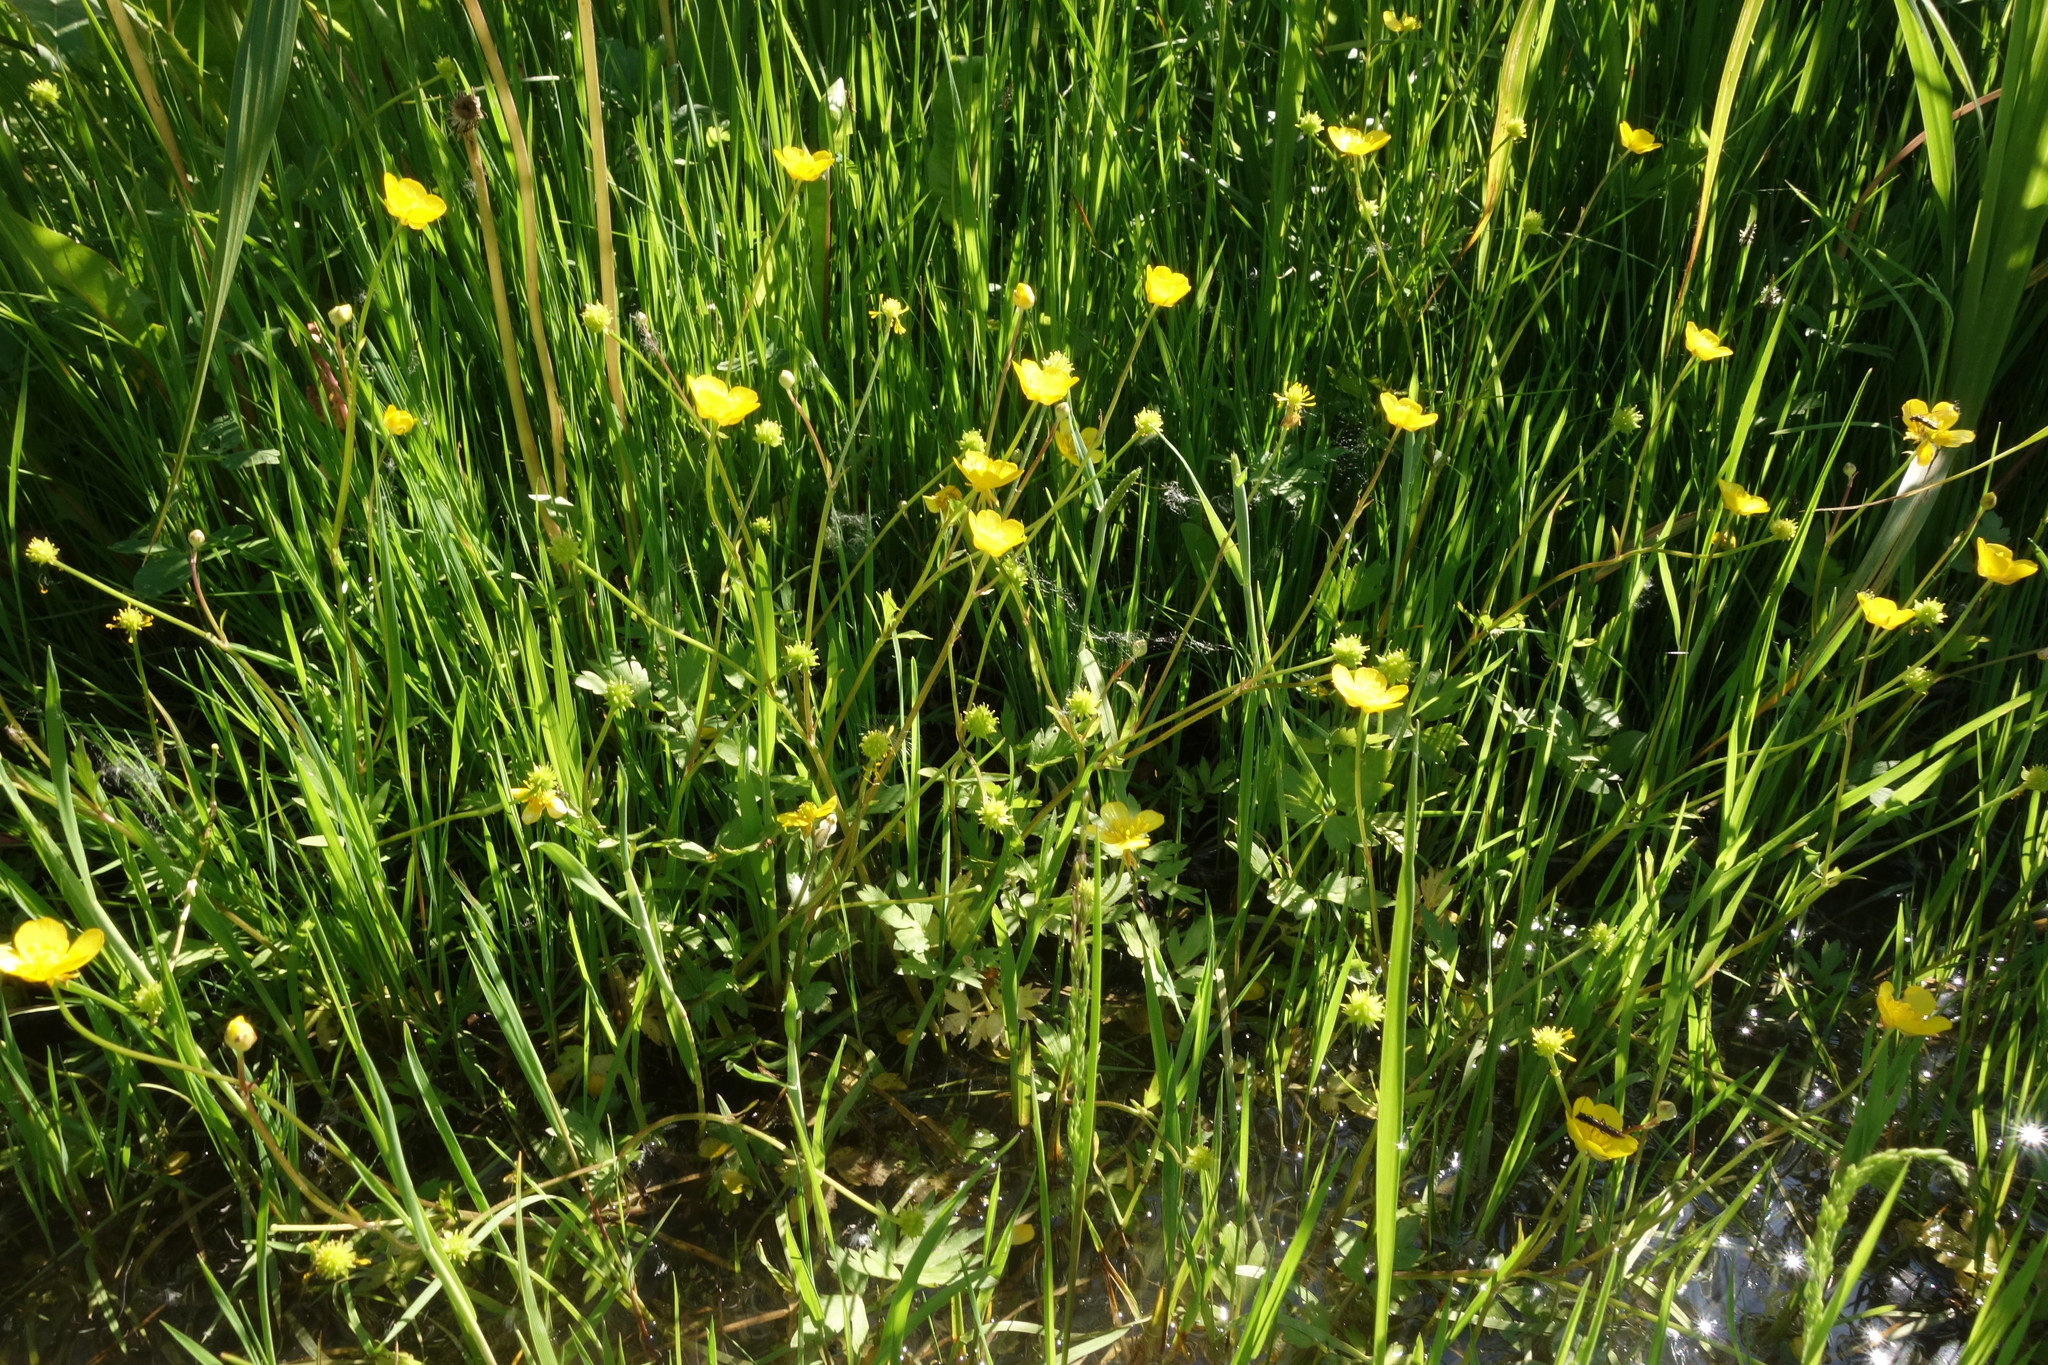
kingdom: Plantae
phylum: Tracheophyta
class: Magnoliopsida
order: Ranunculales
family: Ranunculaceae
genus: Ranunculus
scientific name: Ranunculus repens
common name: Creeping buttercup
